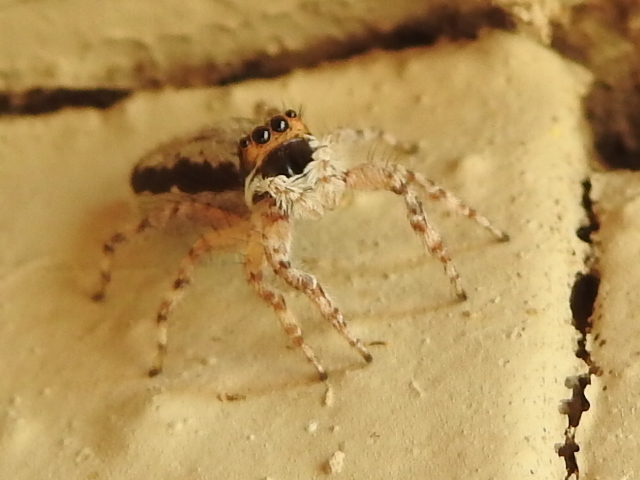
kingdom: Animalia
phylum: Arthropoda
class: Arachnida
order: Araneae
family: Salticidae
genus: Menemerus
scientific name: Menemerus bivittatus
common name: Gray wall jumper
